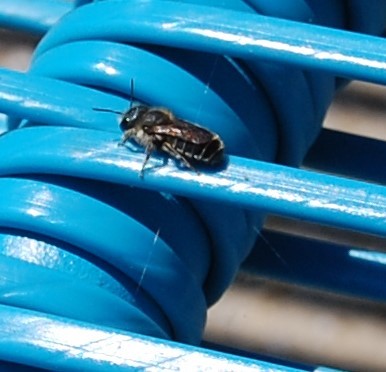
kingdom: Animalia
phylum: Arthropoda
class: Insecta
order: Hymenoptera
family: Megachilidae
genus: Osmia
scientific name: Osmia caerulescens
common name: Blue mason bee
